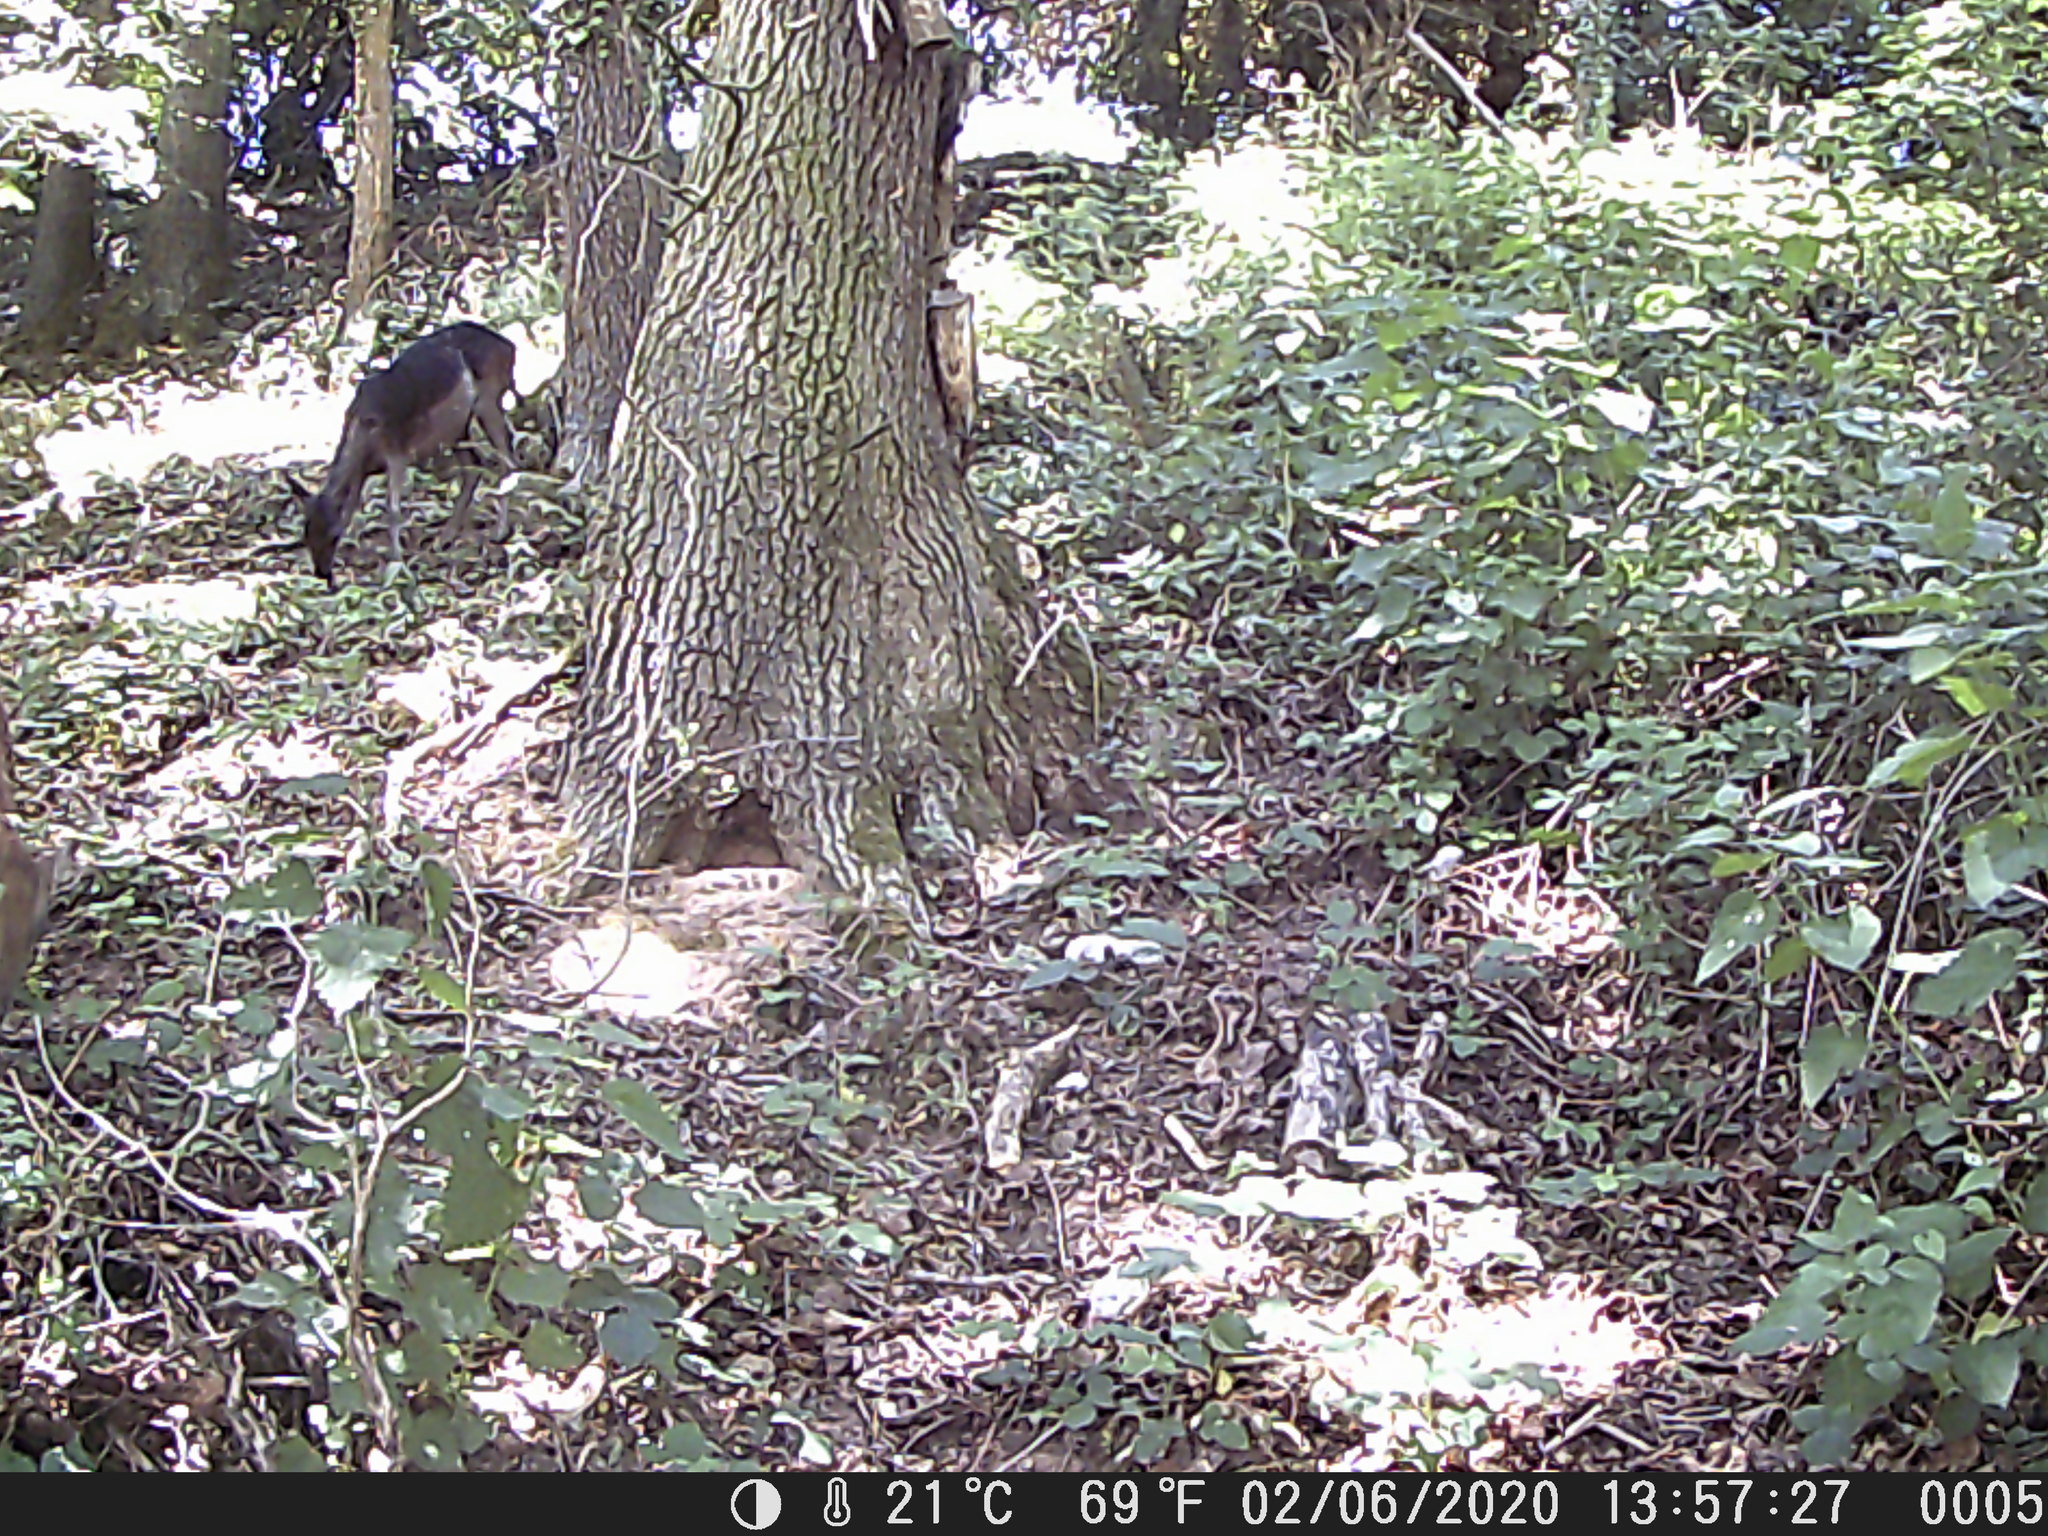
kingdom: Animalia
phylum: Chordata
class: Mammalia
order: Artiodactyla
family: Cervidae
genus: Dama
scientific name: Dama dama
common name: Fallow deer
